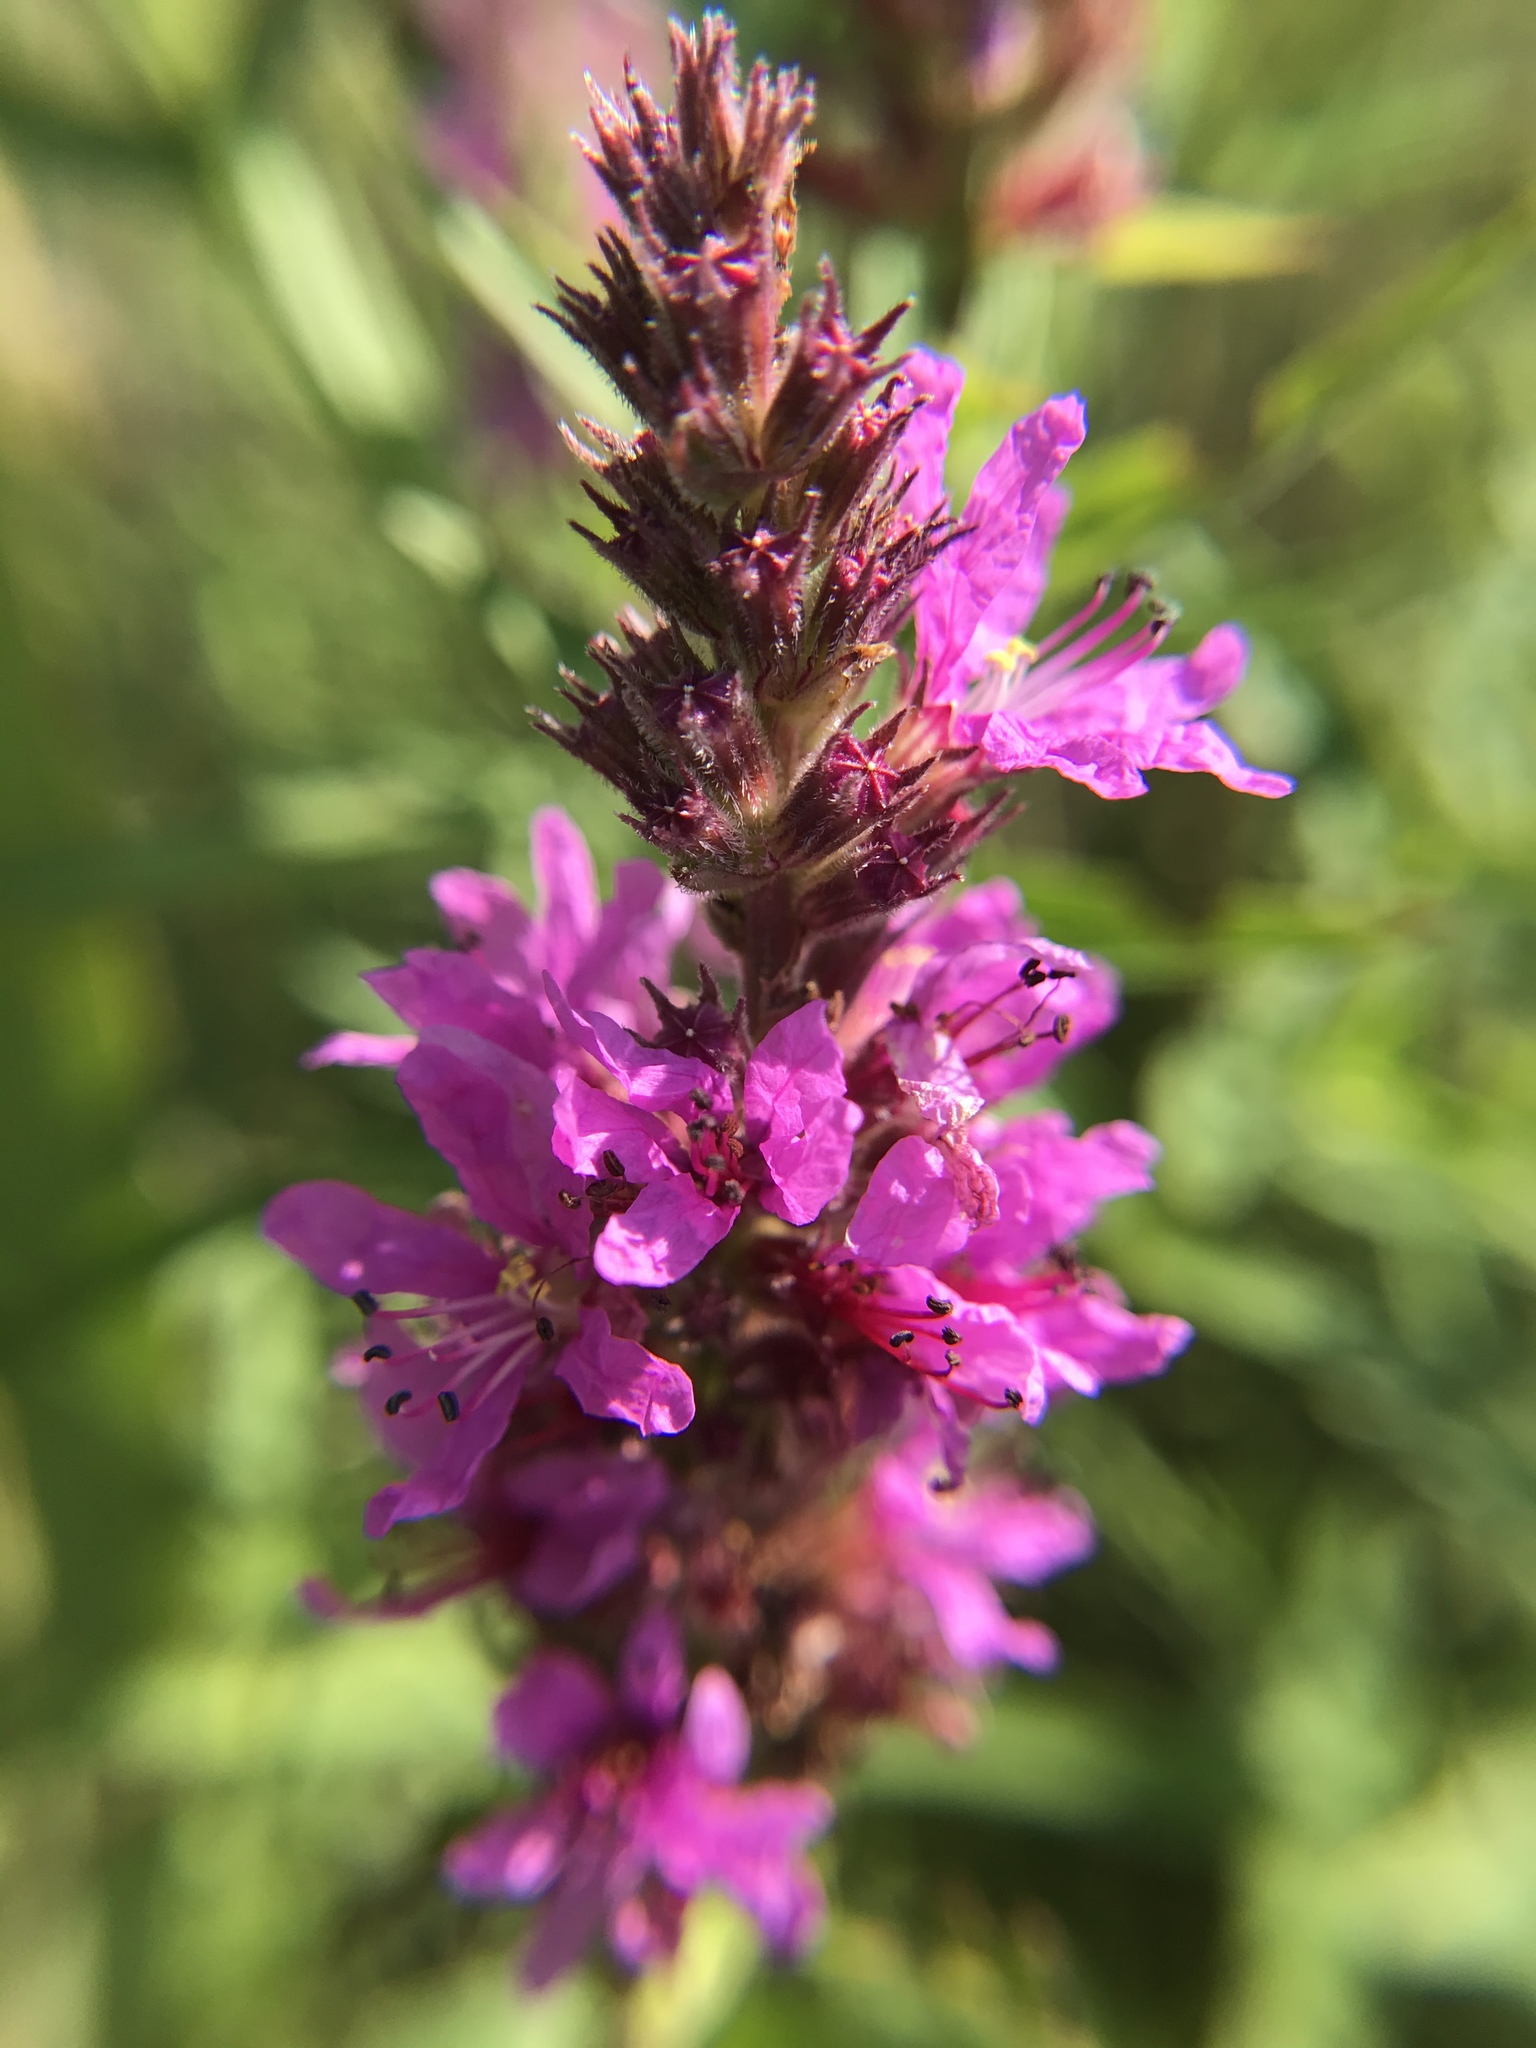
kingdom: Plantae
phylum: Tracheophyta
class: Magnoliopsida
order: Myrtales
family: Lythraceae
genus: Lythrum
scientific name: Lythrum salicaria
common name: Purple loosestrife
